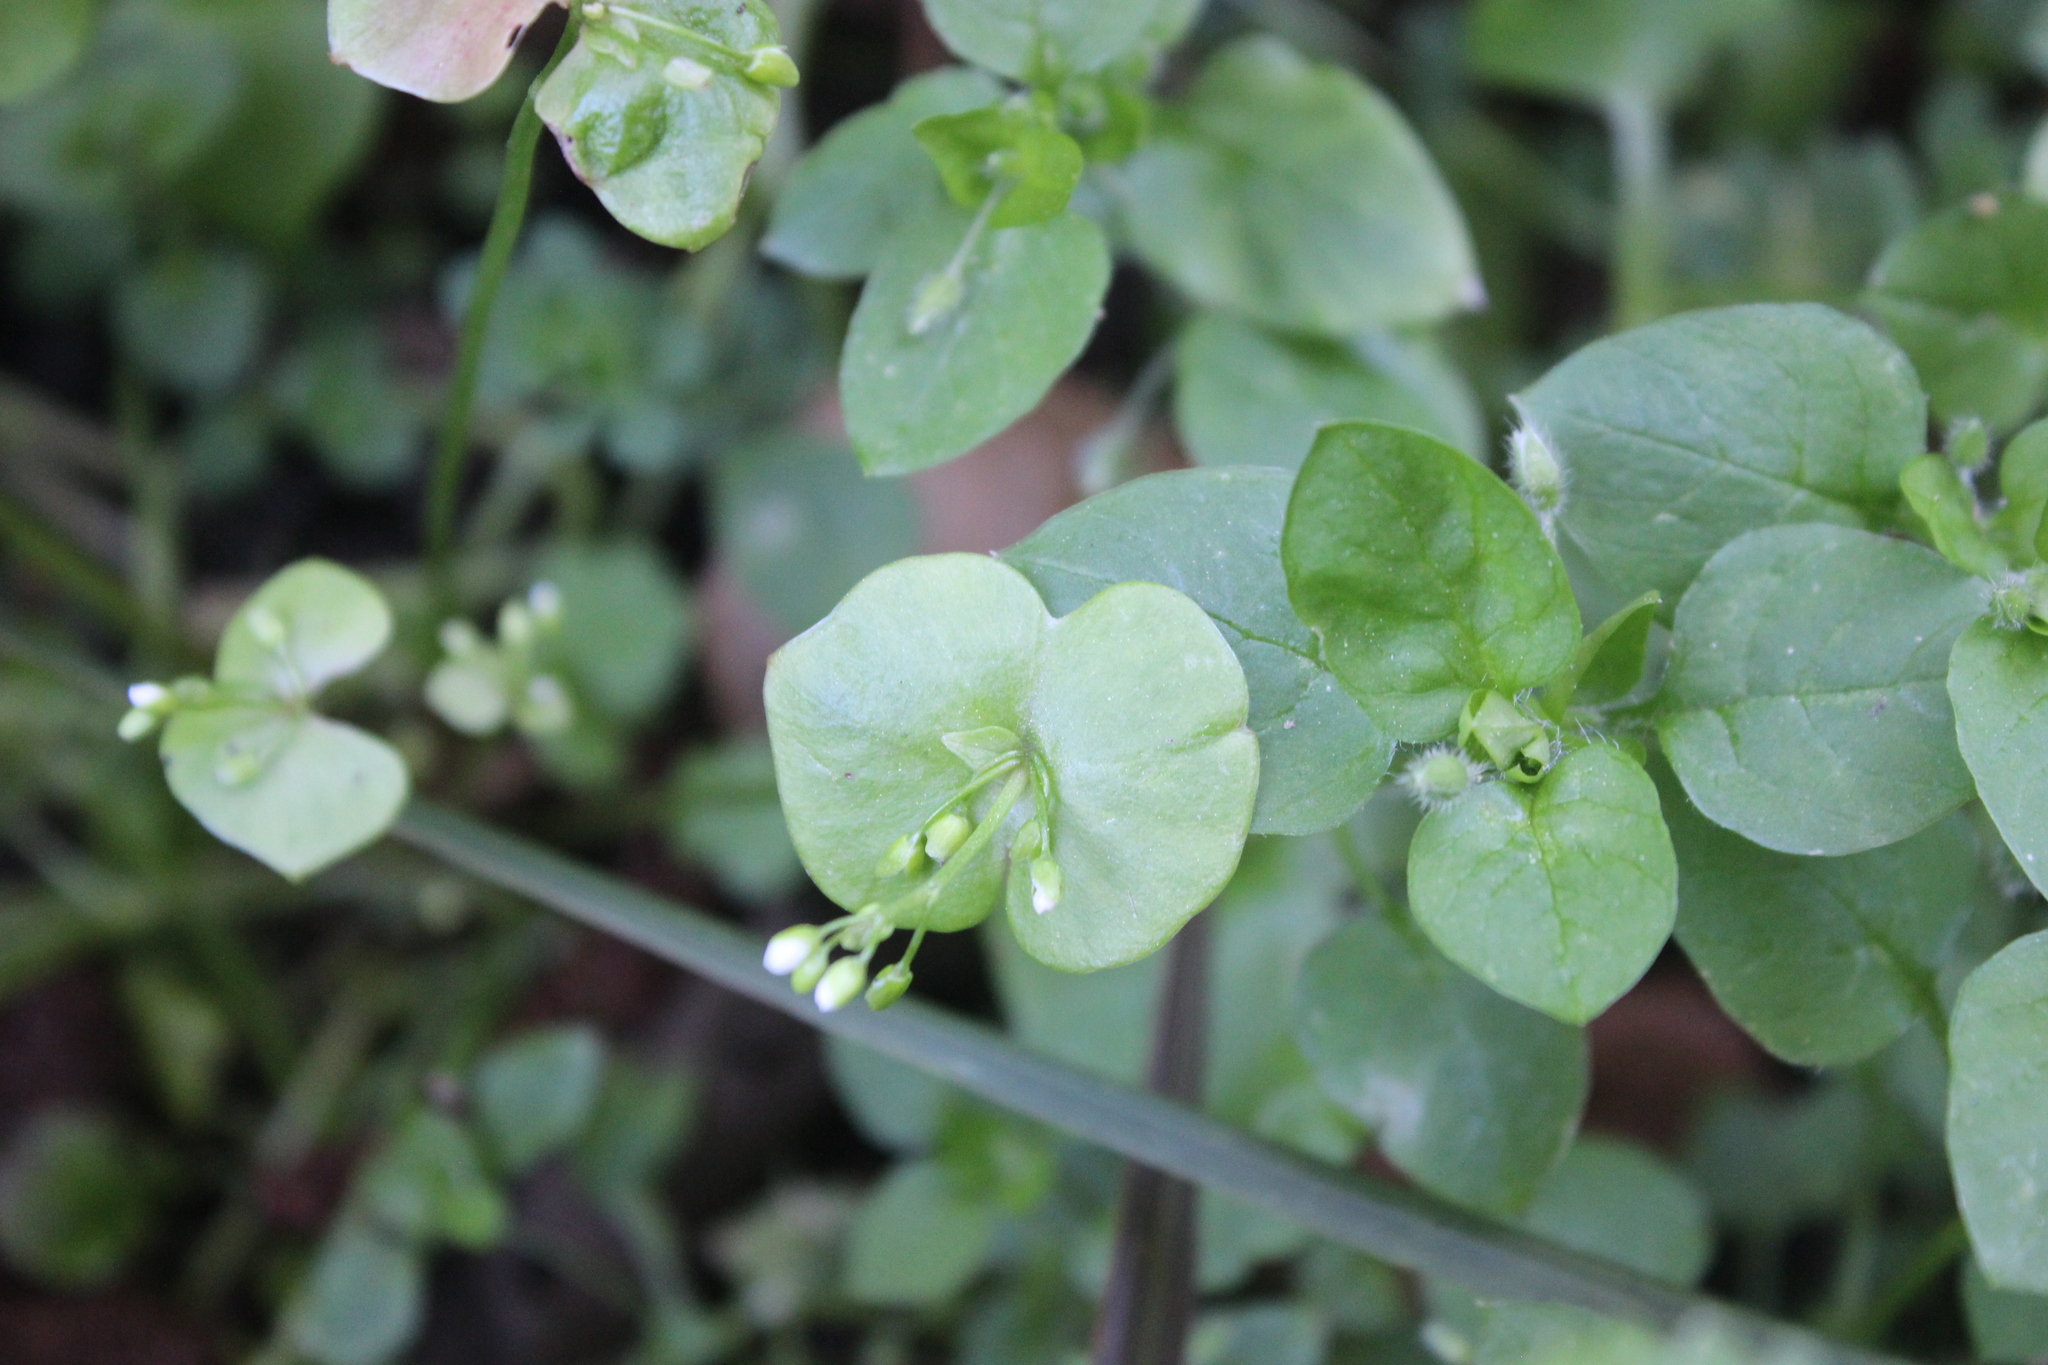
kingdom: Plantae
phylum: Tracheophyta
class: Magnoliopsida
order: Caryophyllales
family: Montiaceae
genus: Claytonia
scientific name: Claytonia perfoliata
